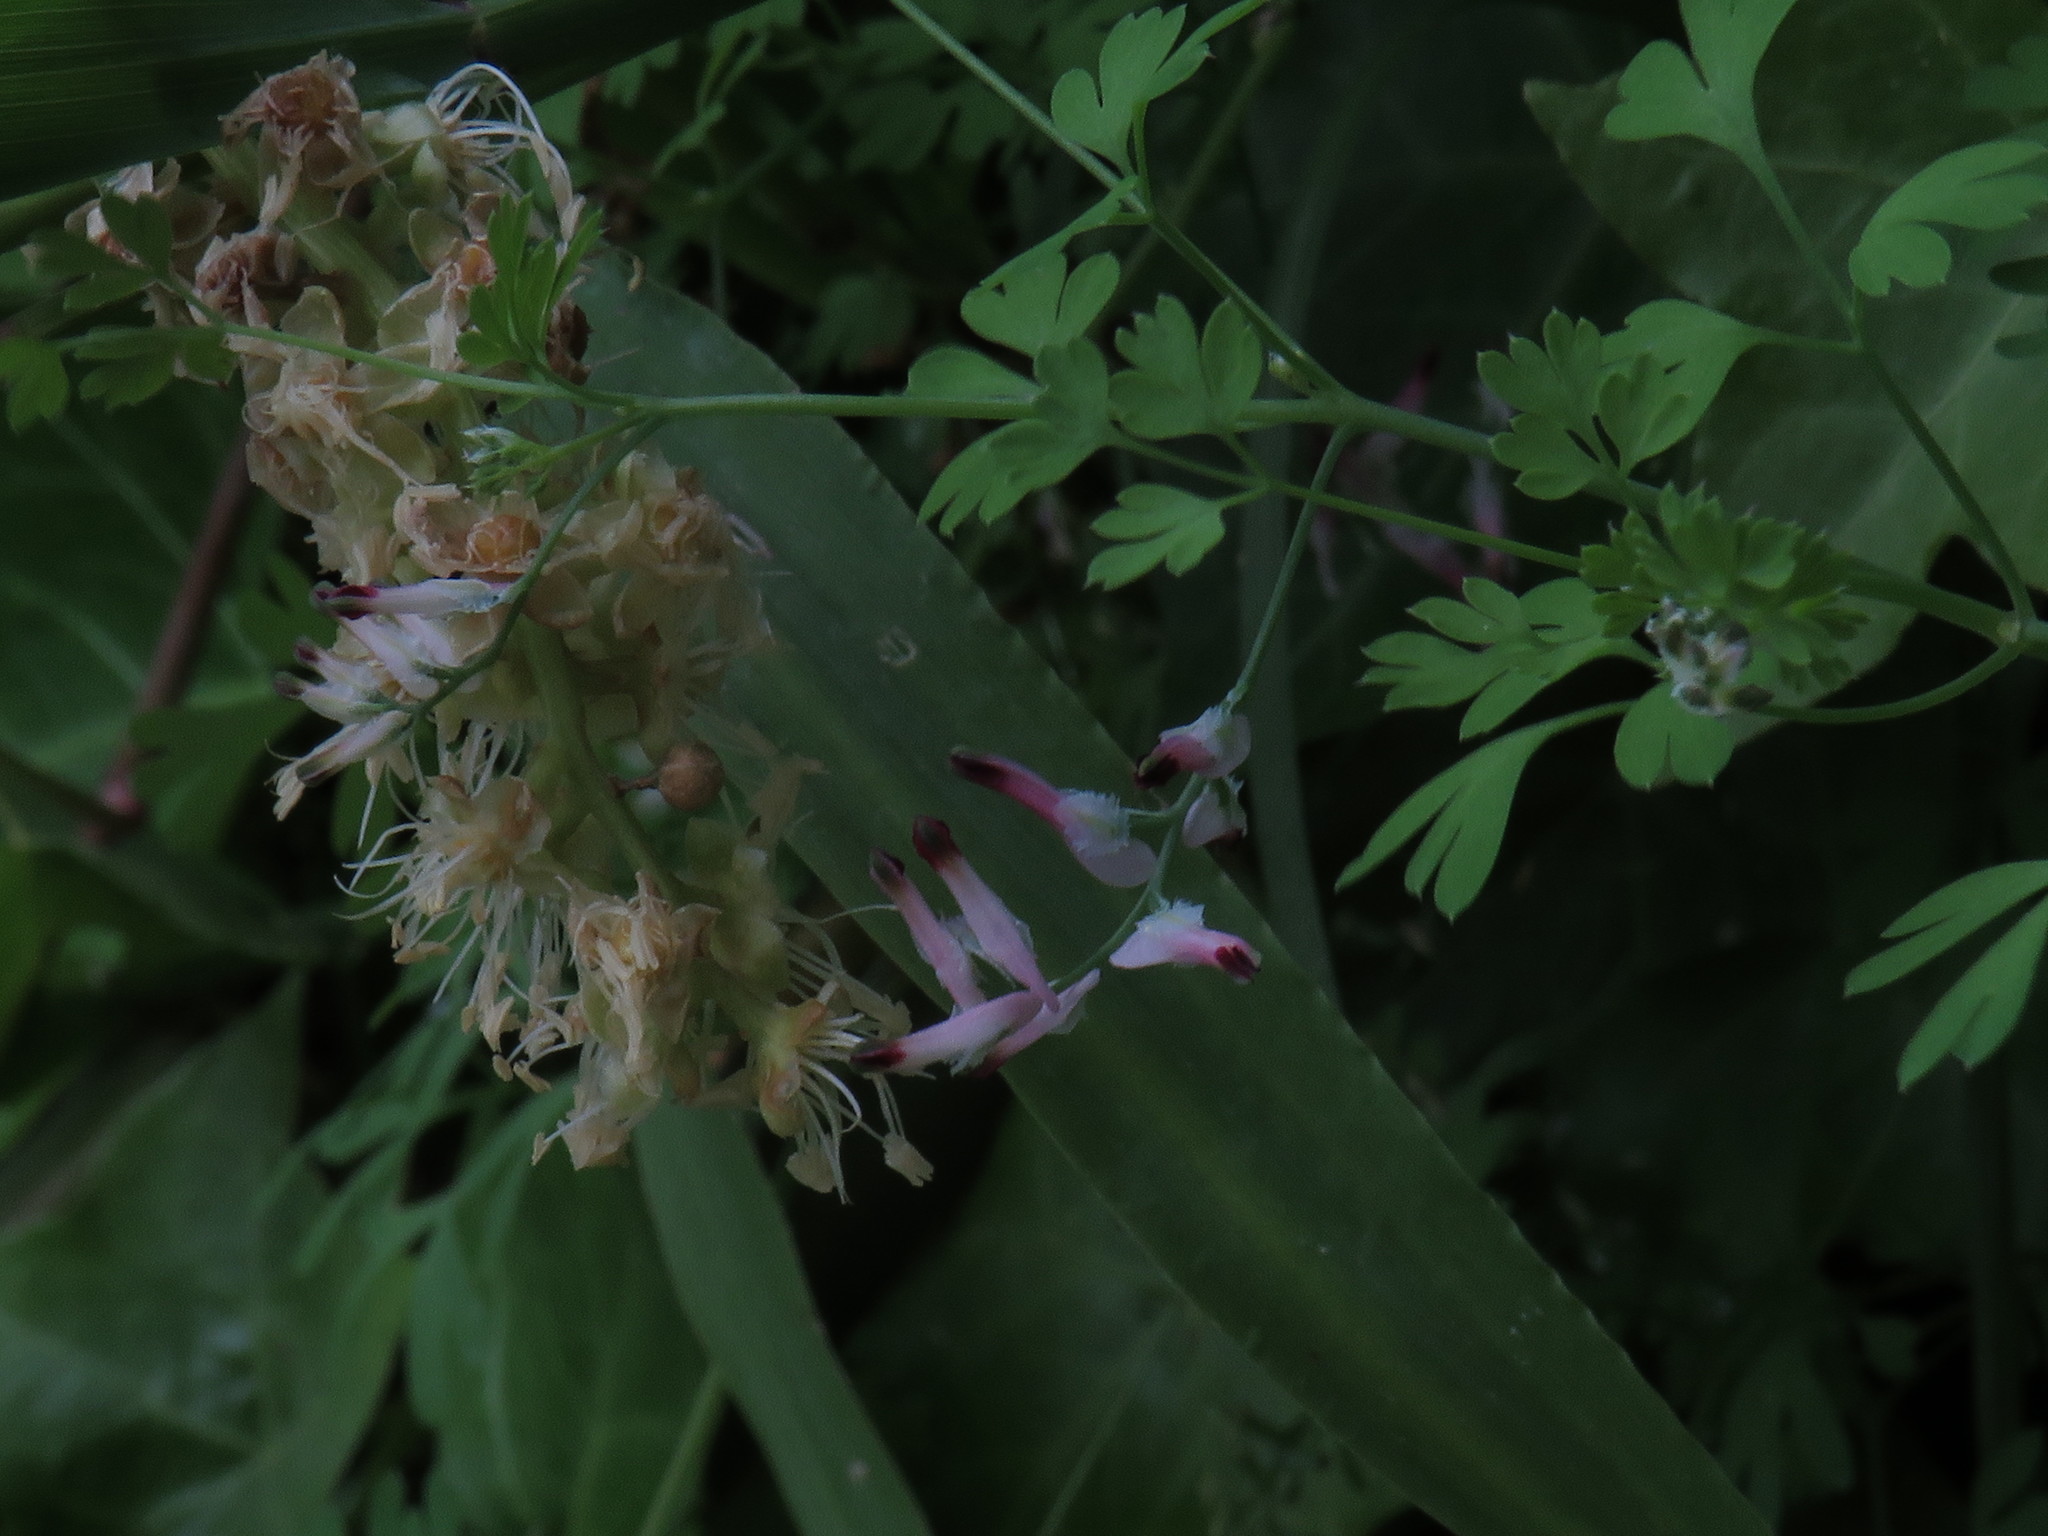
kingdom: Plantae
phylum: Tracheophyta
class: Magnoliopsida
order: Ranunculales
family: Papaveraceae
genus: Fumaria
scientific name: Fumaria muralis
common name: Common ramping-fumitory
